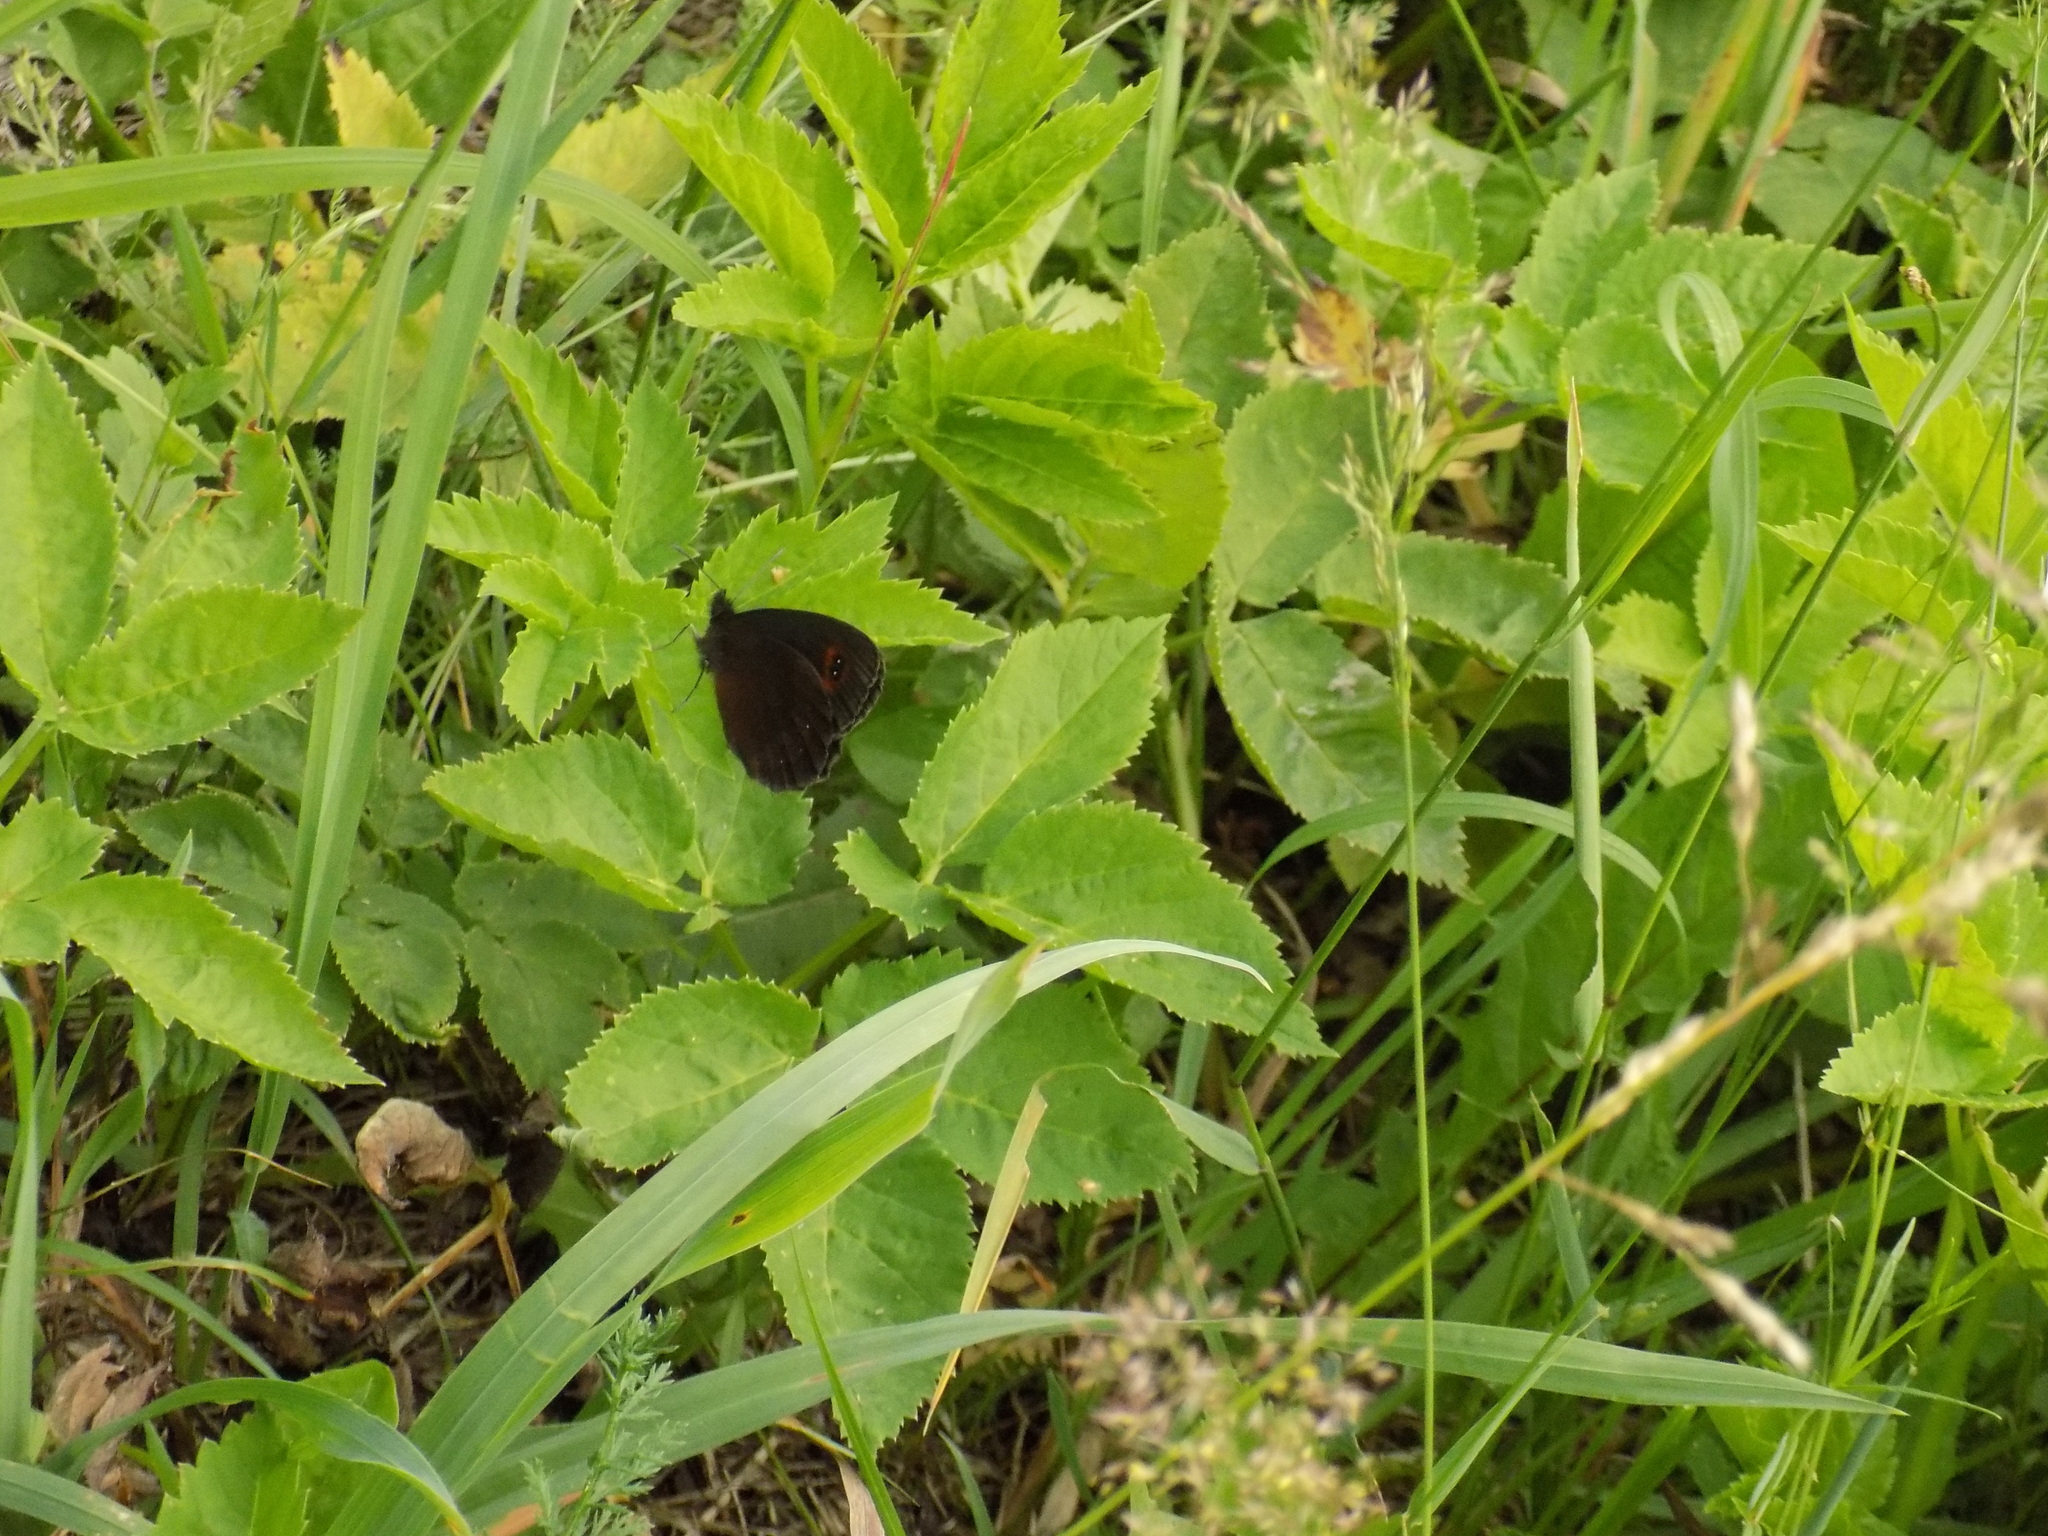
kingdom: Animalia
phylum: Arthropoda
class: Insecta
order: Lepidoptera
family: Nymphalidae
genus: Erebia
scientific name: Erebia aethiops
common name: Scotch argus
